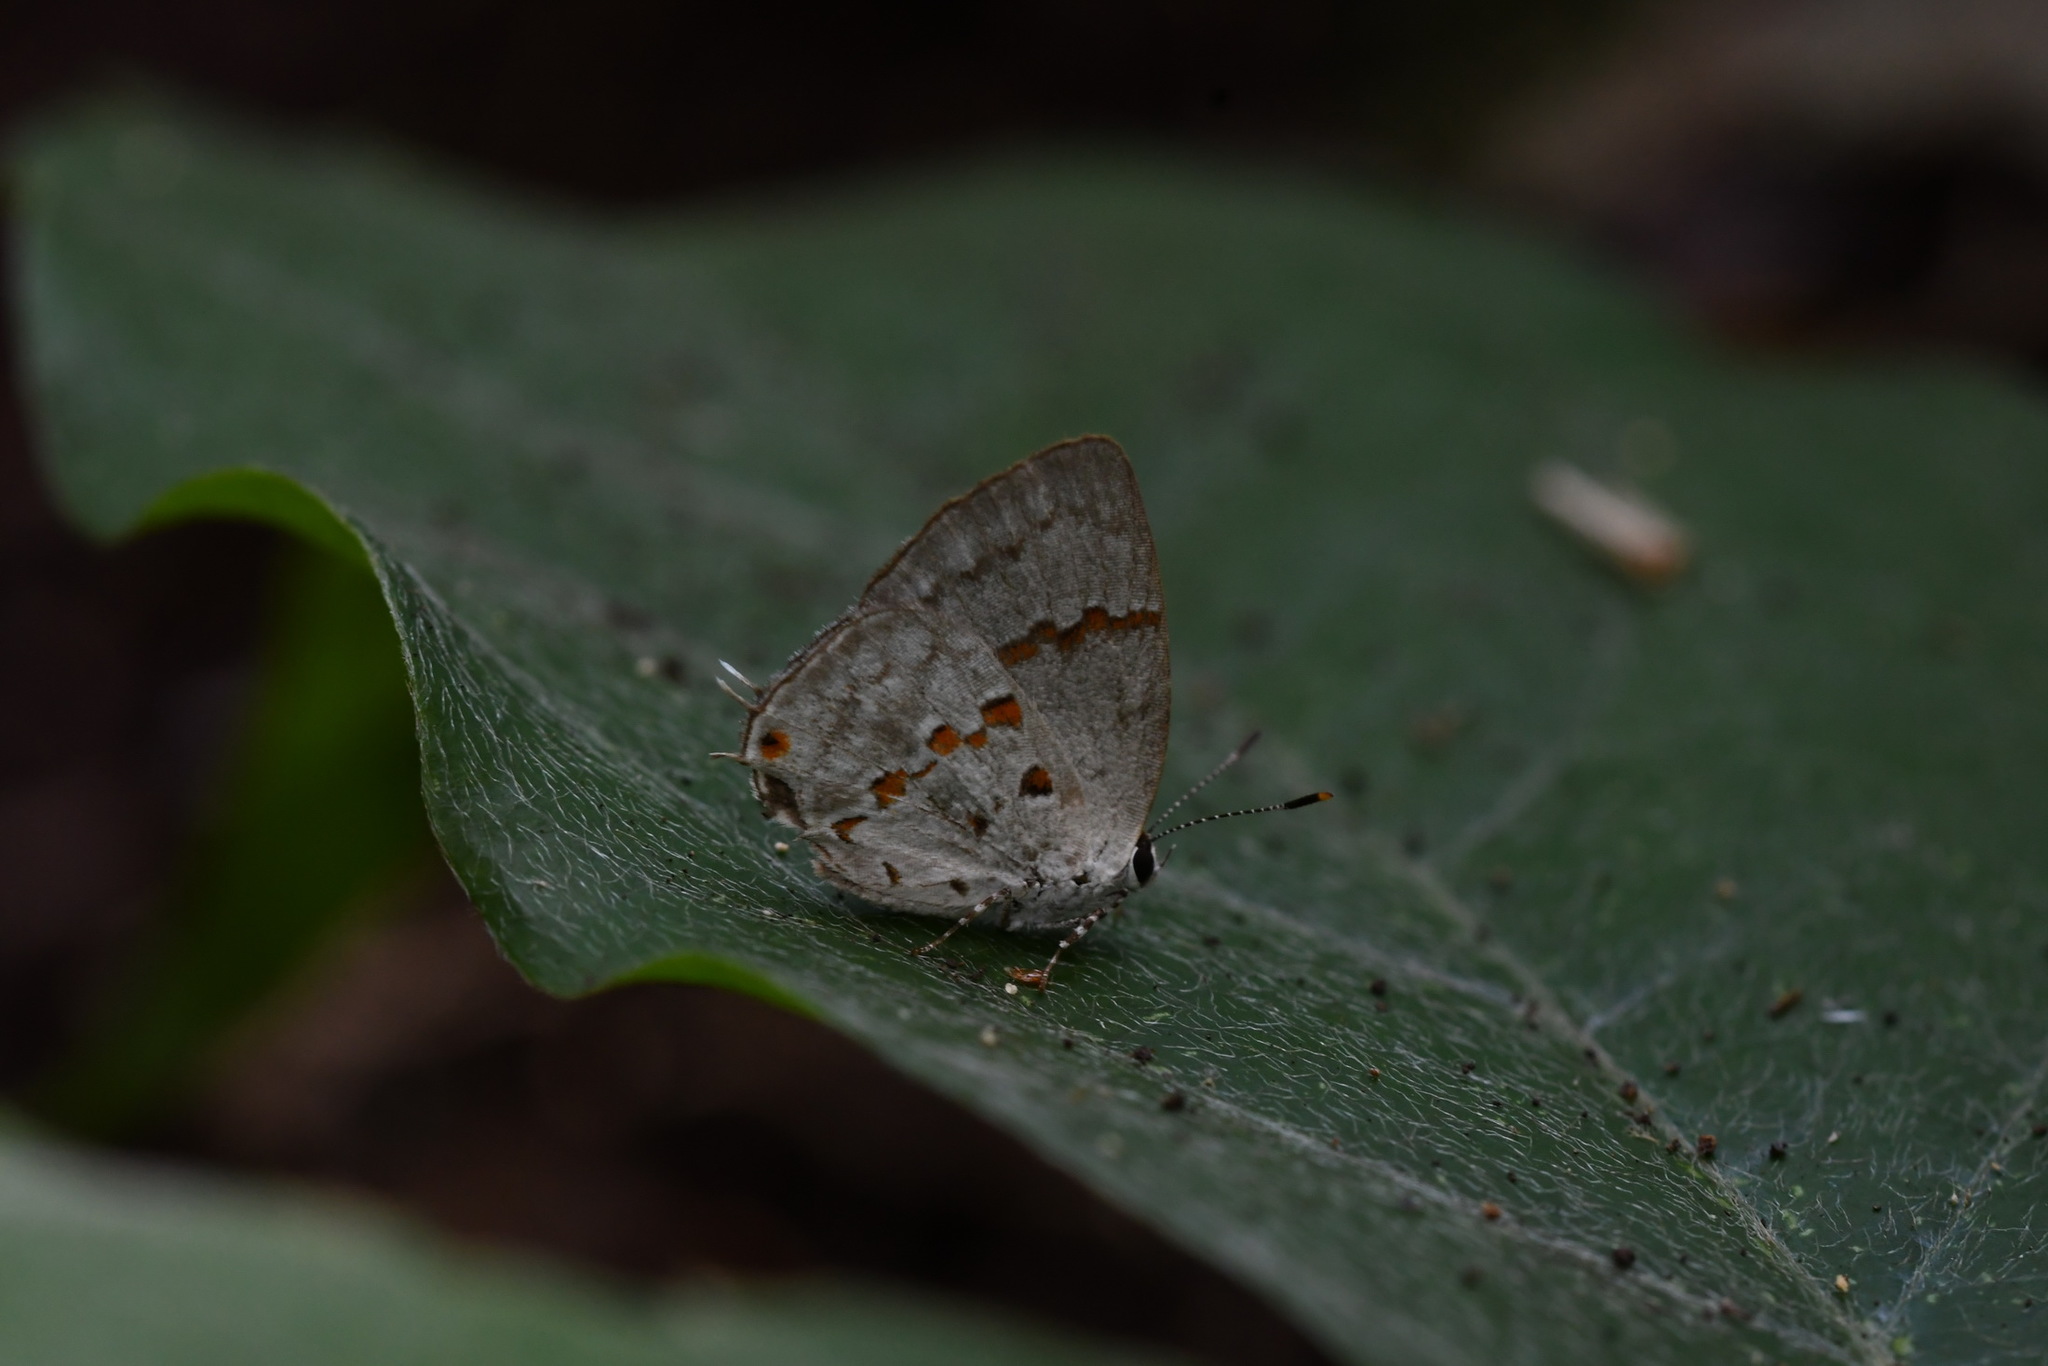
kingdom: Animalia
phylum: Arthropoda
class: Insecta
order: Lepidoptera
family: Lycaenidae
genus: Thecla
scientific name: Thecla celmus
